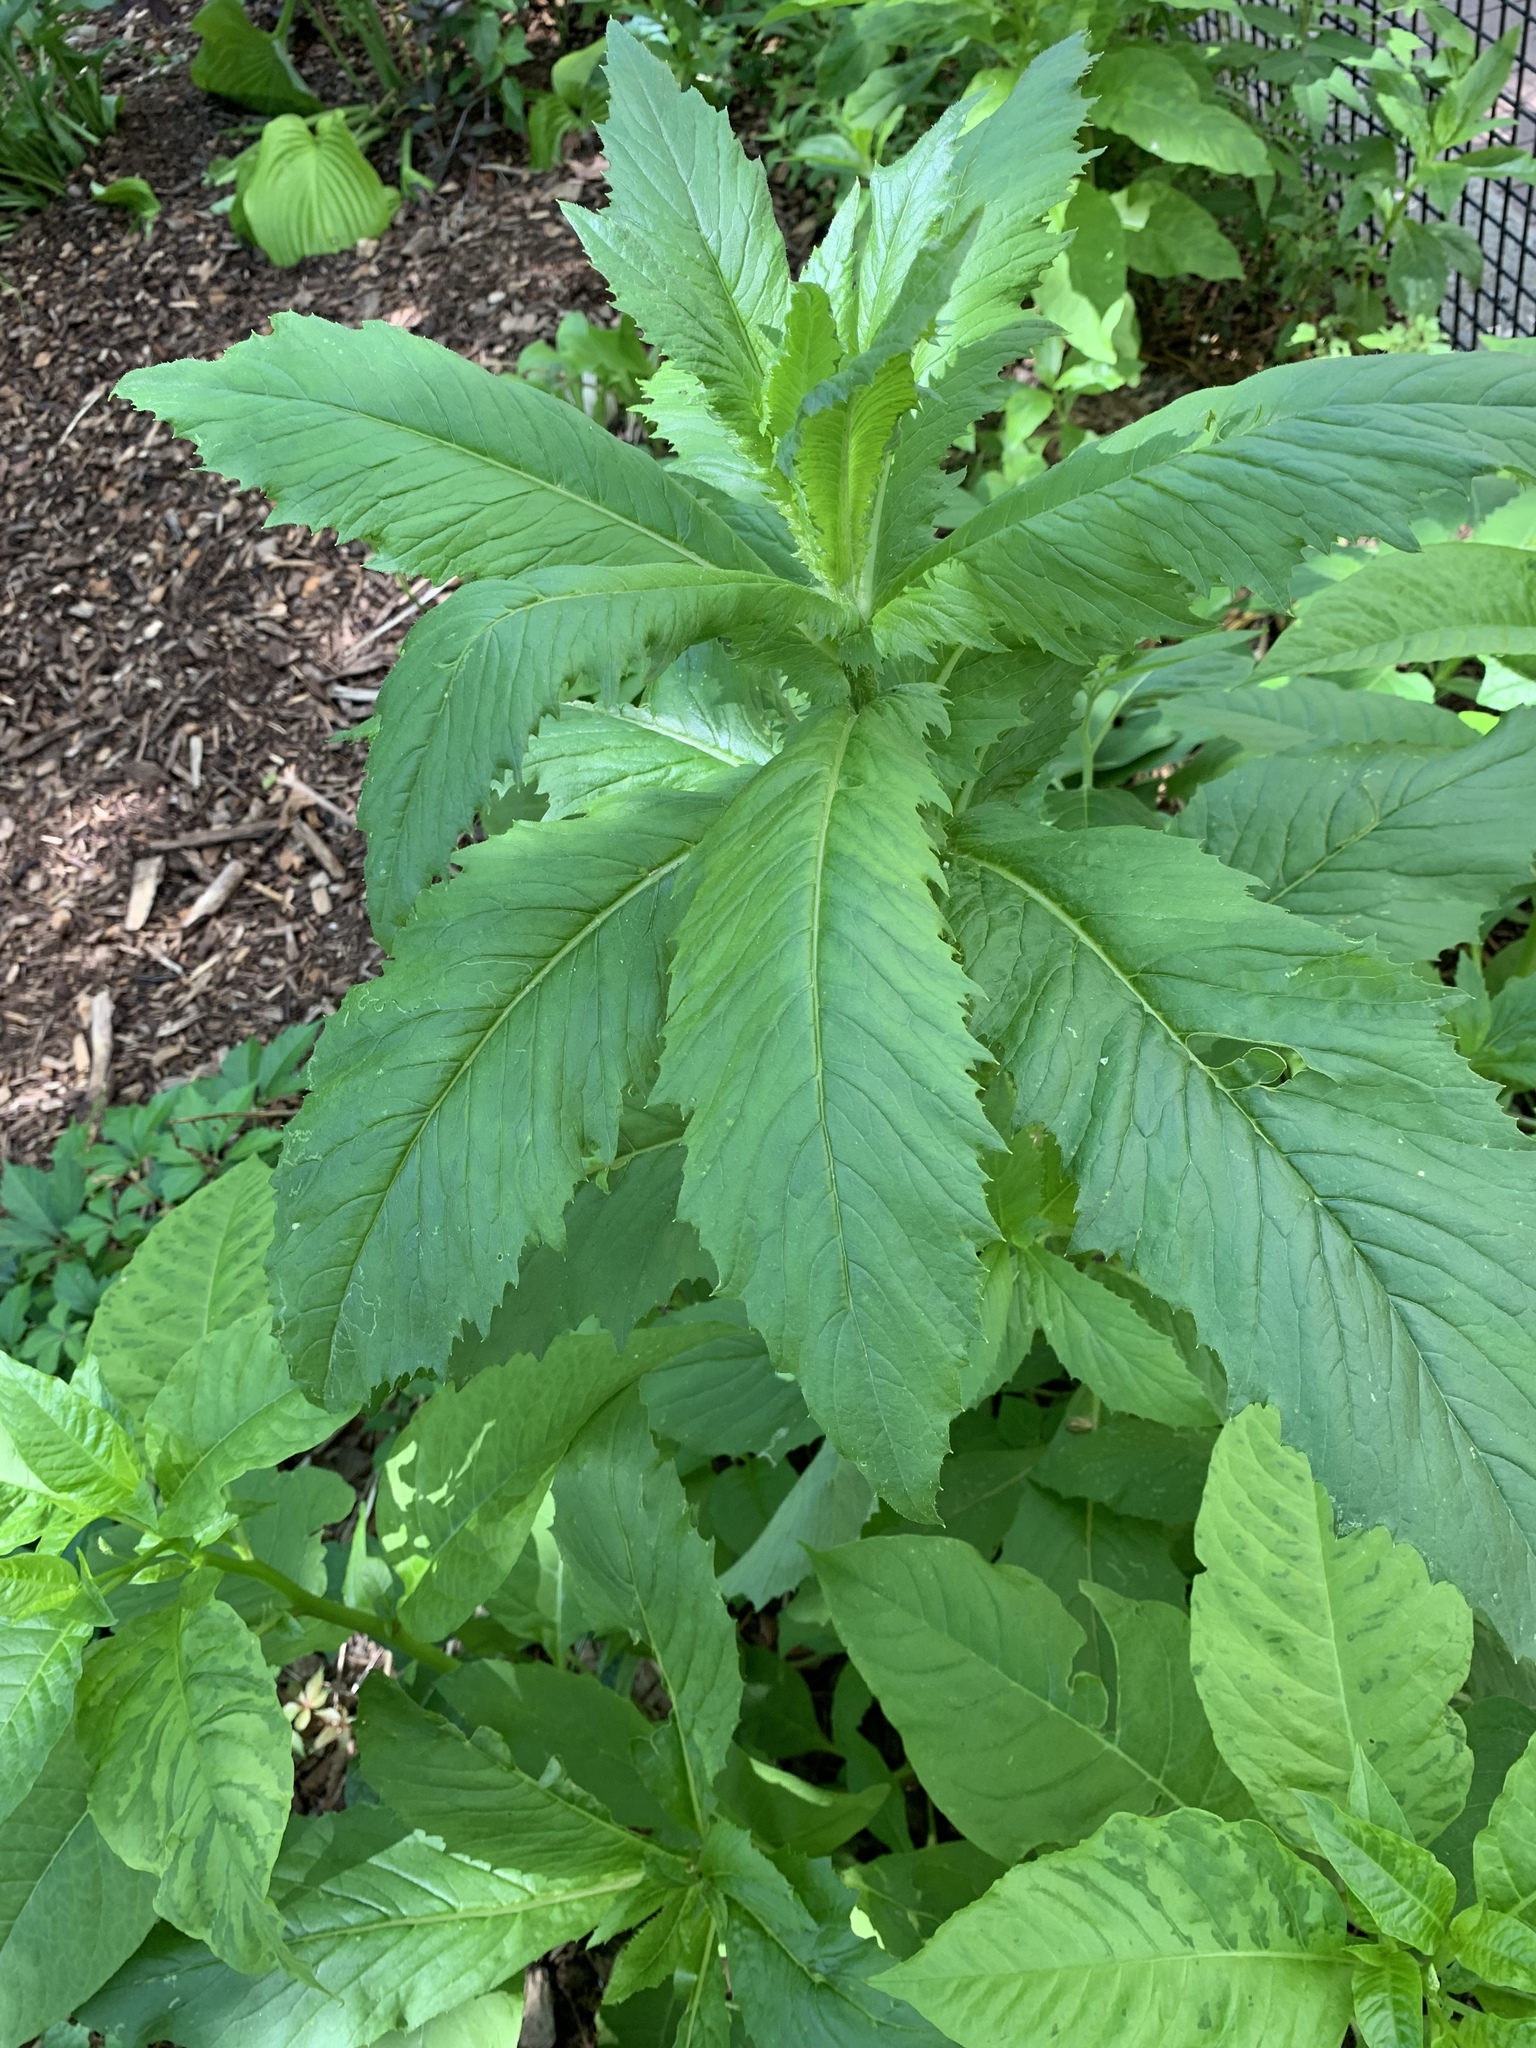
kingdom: Plantae
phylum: Tracheophyta
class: Magnoliopsida
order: Asterales
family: Asteraceae
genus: Erechtites
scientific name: Erechtites hieraciifolius
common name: American burnweed
